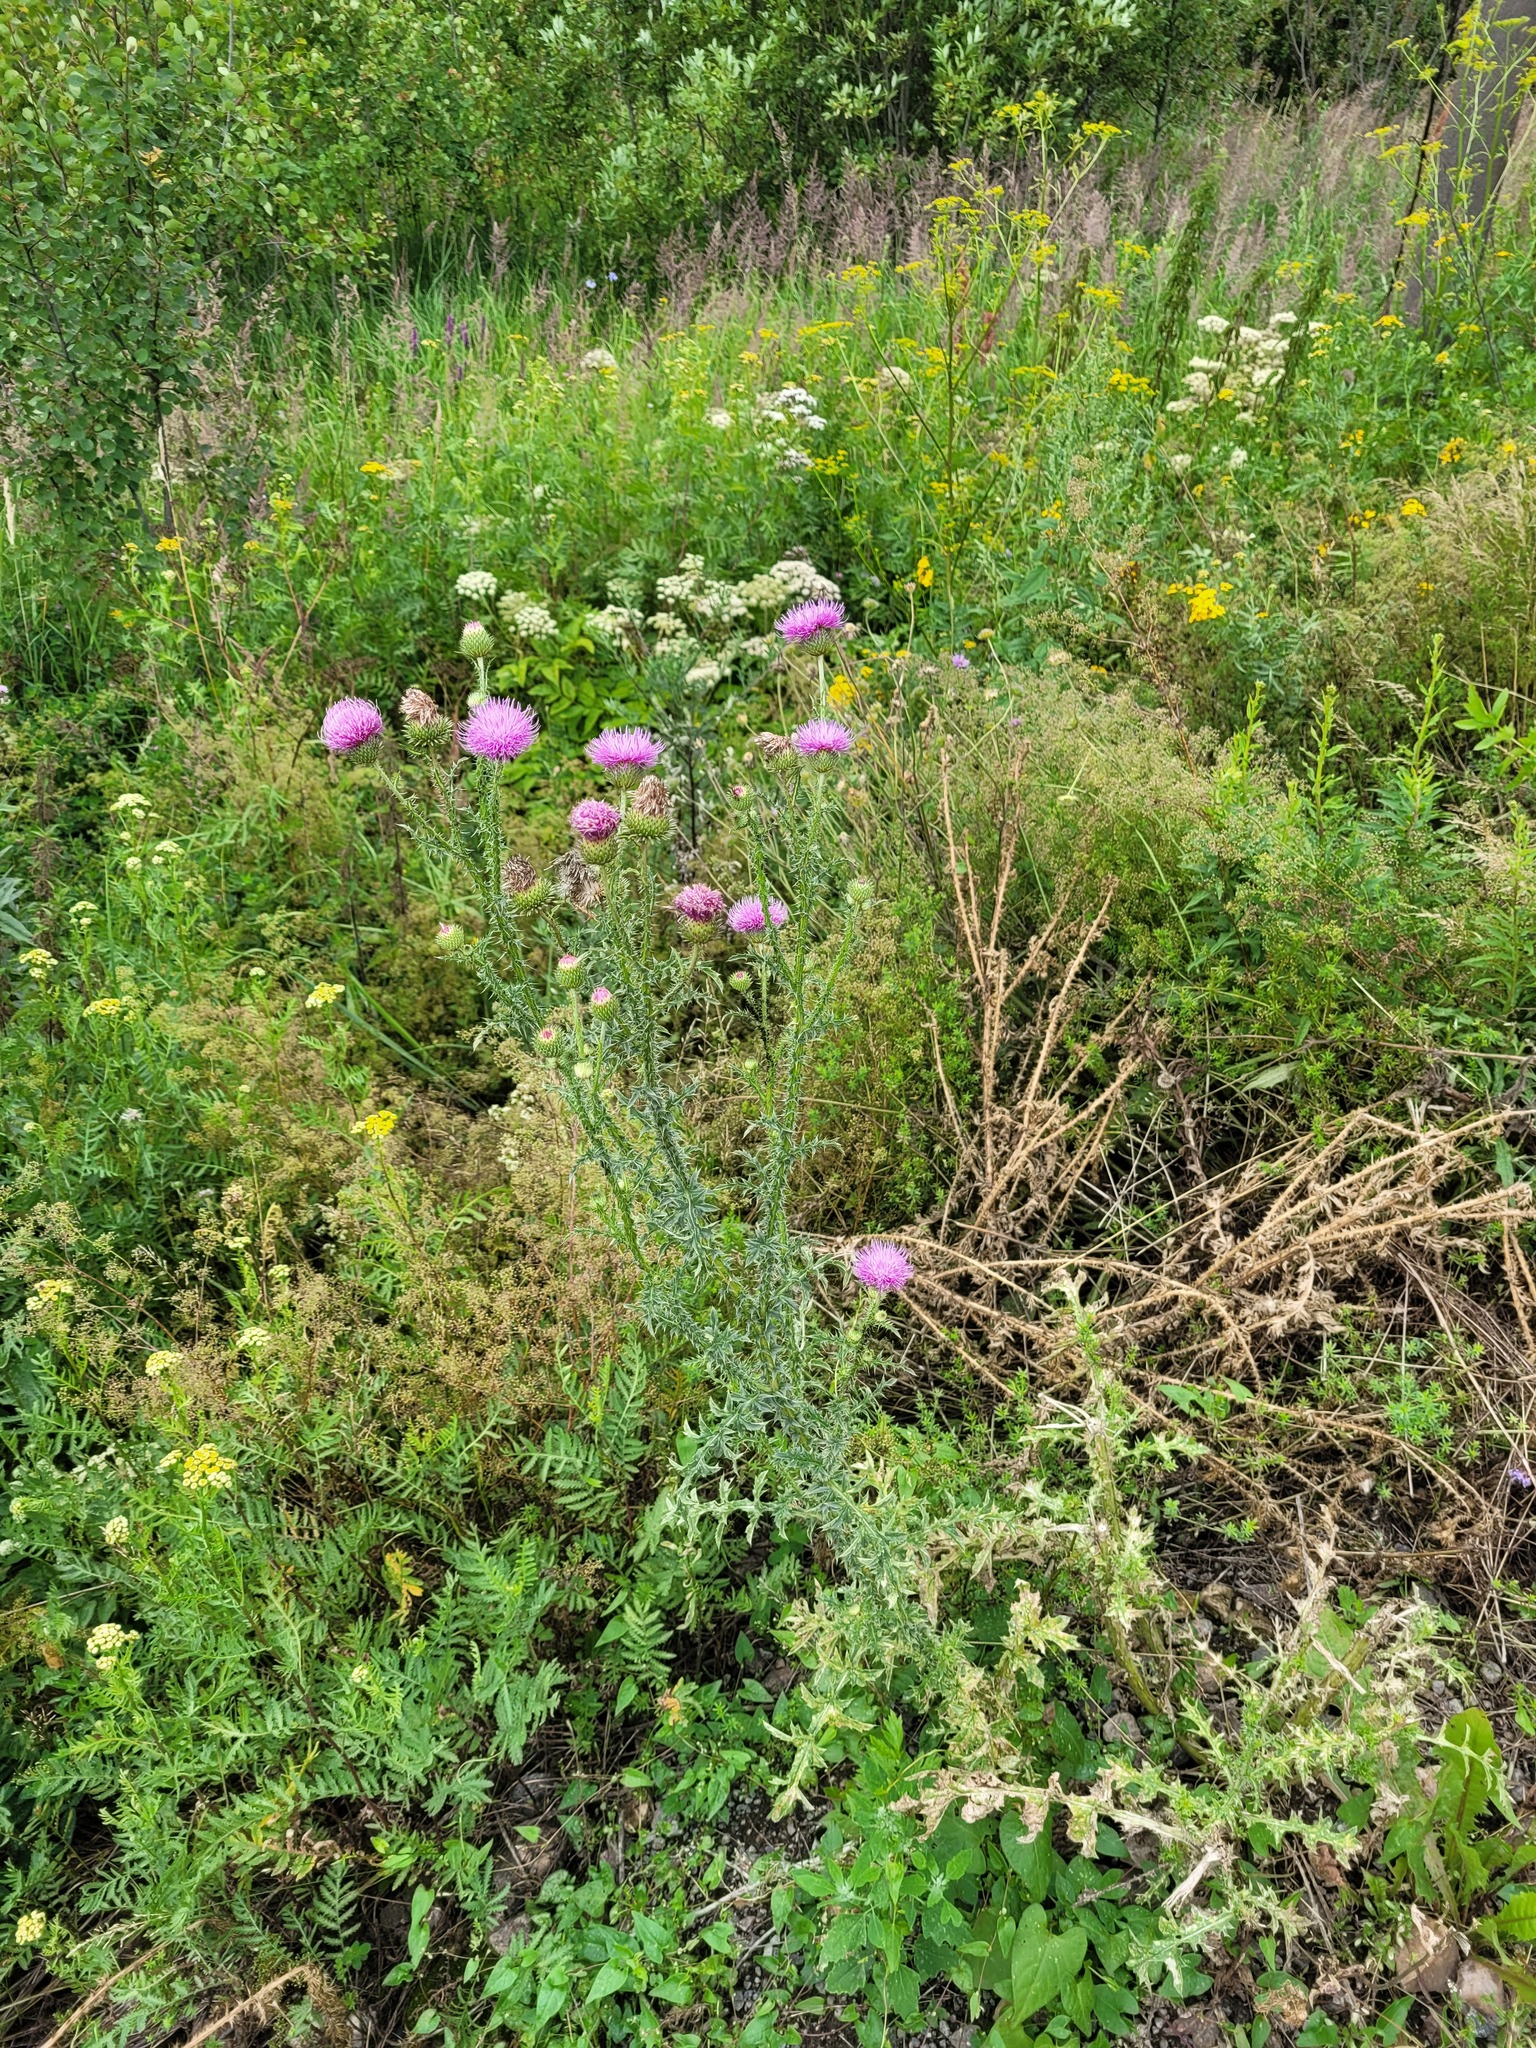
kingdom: Plantae
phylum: Tracheophyta
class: Magnoliopsida
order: Asterales
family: Asteraceae
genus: Carduus
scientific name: Carduus acanthoides
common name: Plumeless thistle
